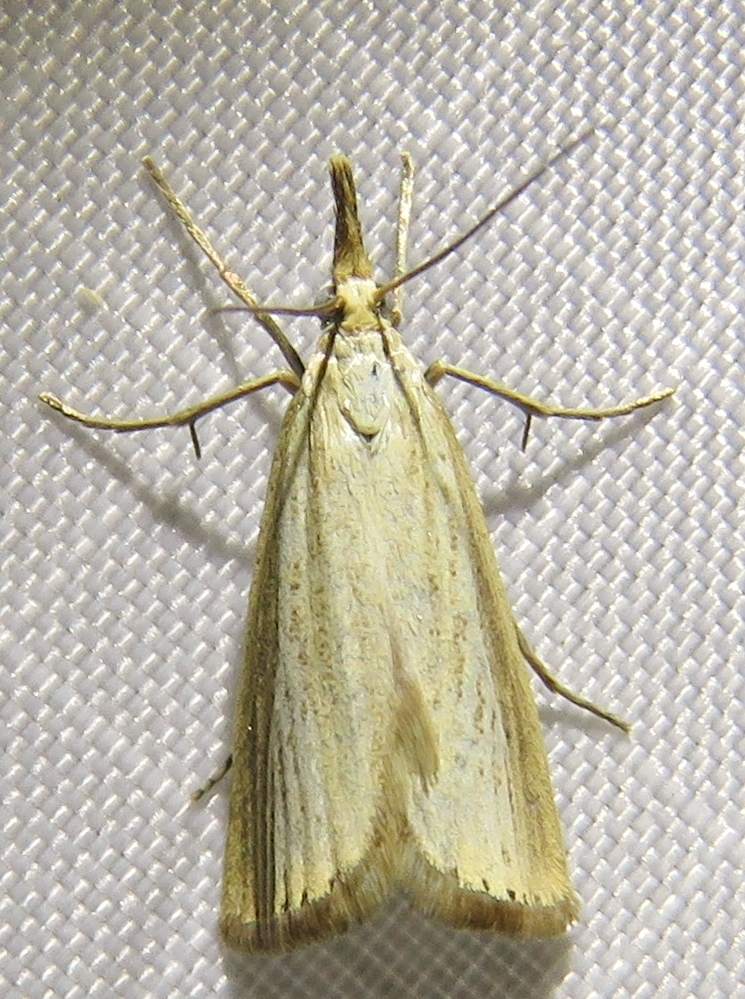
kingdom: Animalia
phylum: Arthropoda
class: Insecta
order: Lepidoptera
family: Crambidae
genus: Agriphila
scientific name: Agriphila straminella
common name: Straw grass-veneer
